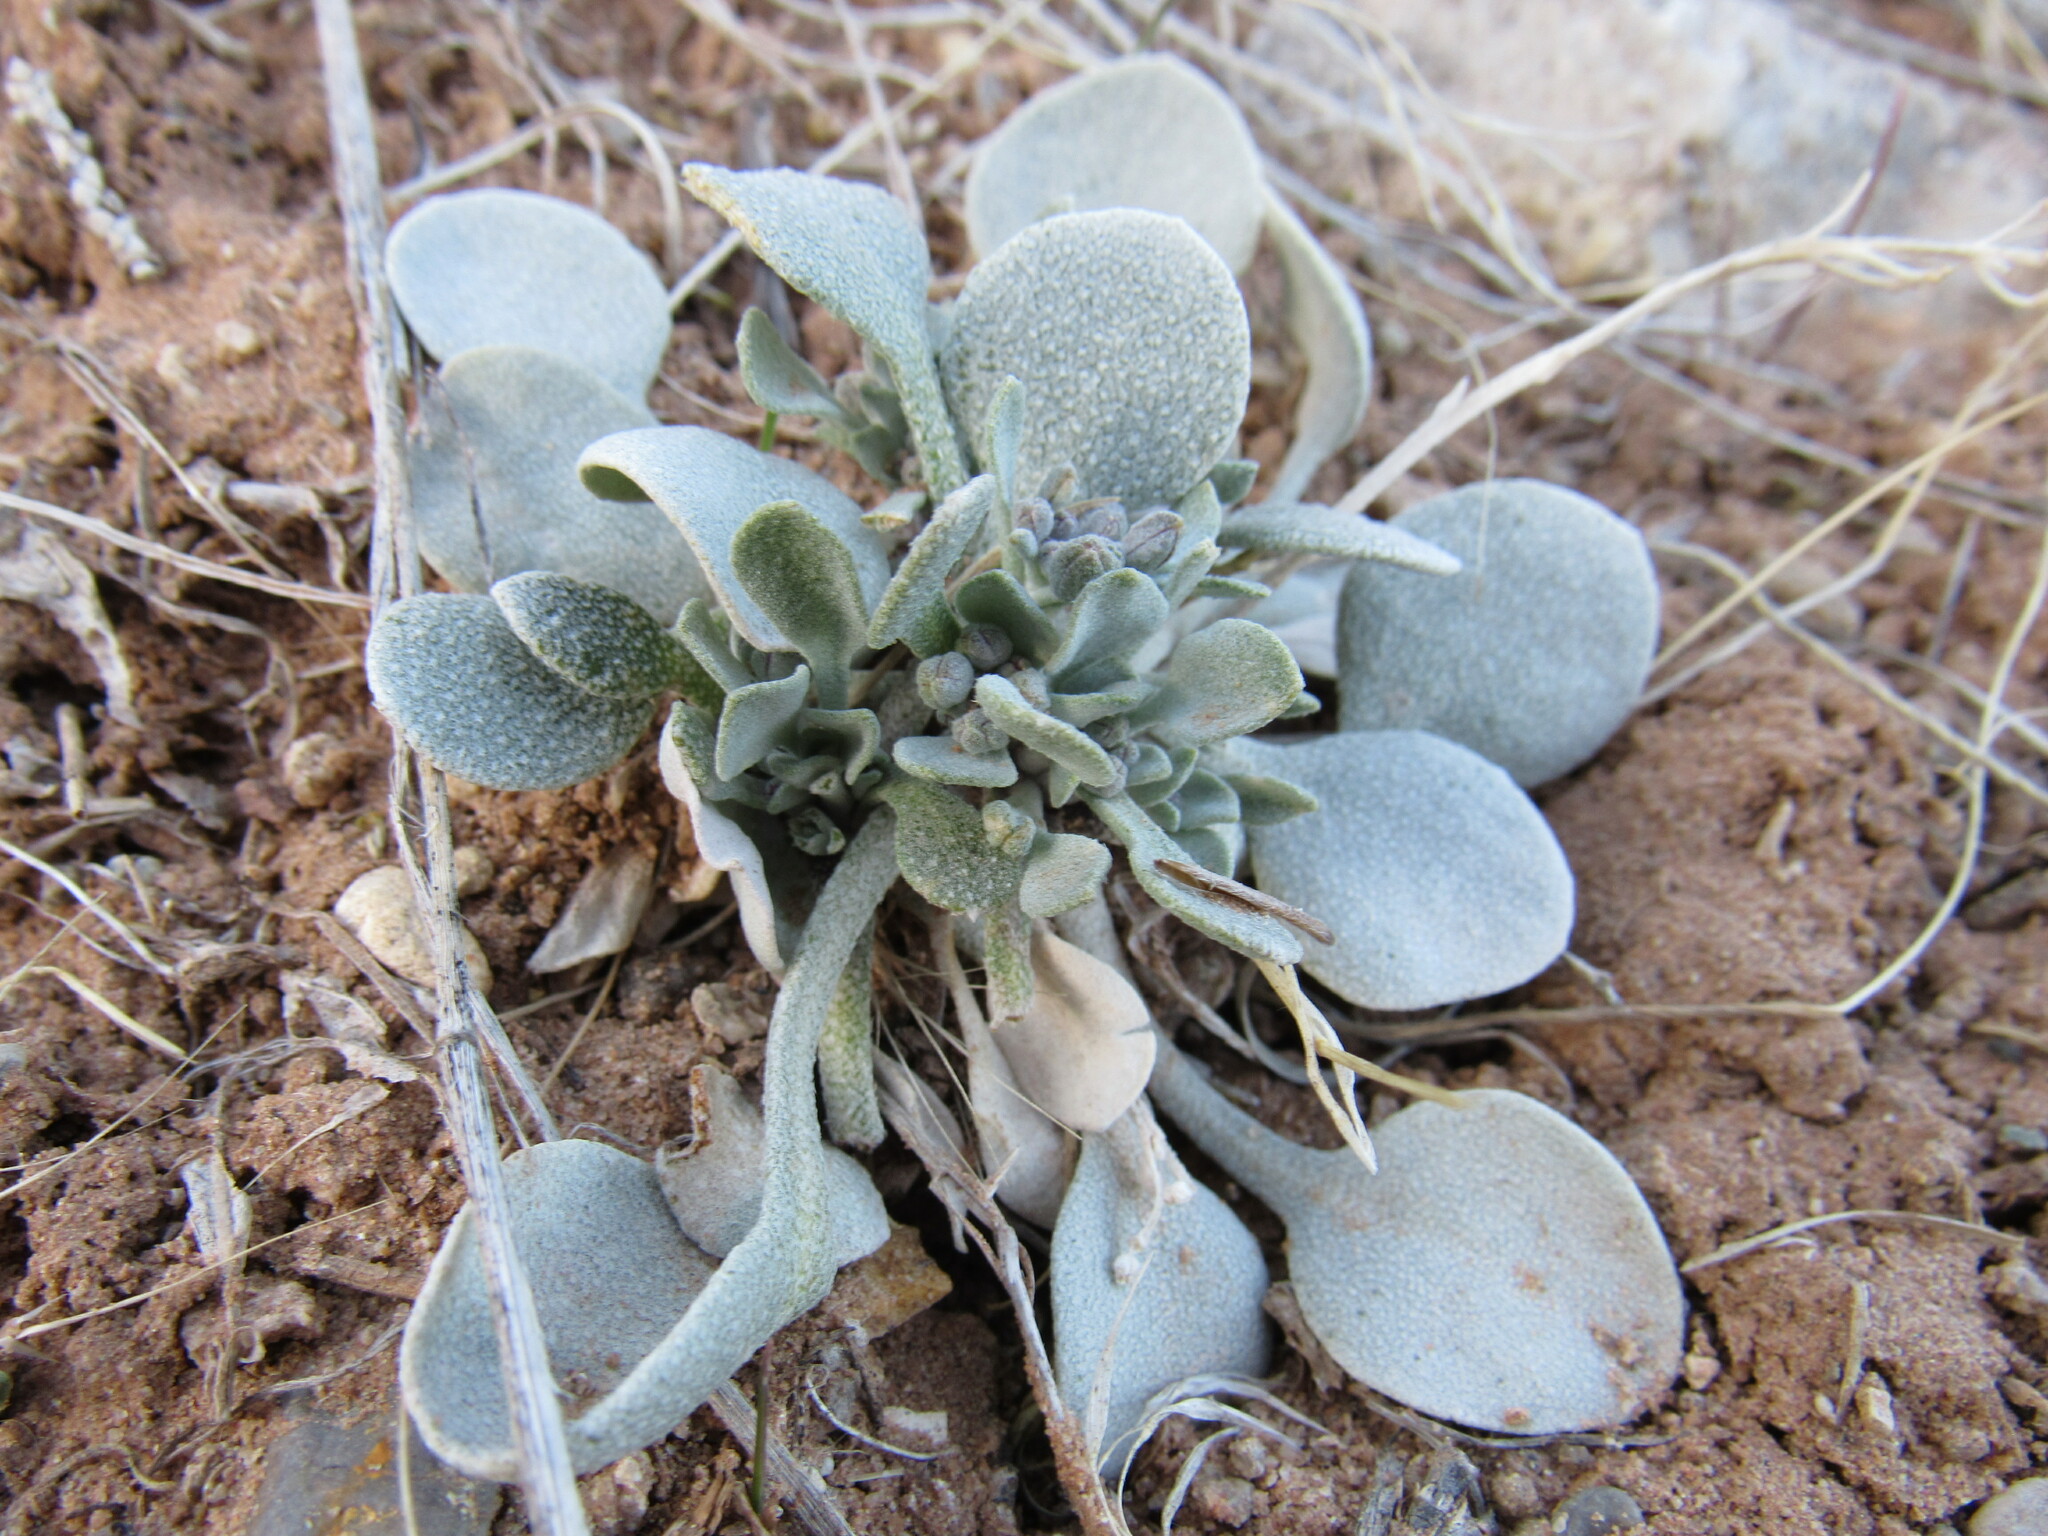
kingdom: Plantae
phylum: Tracheophyta
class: Magnoliopsida
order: Brassicales
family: Brassicaceae
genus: Physaria
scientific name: Physaria acutifolia
